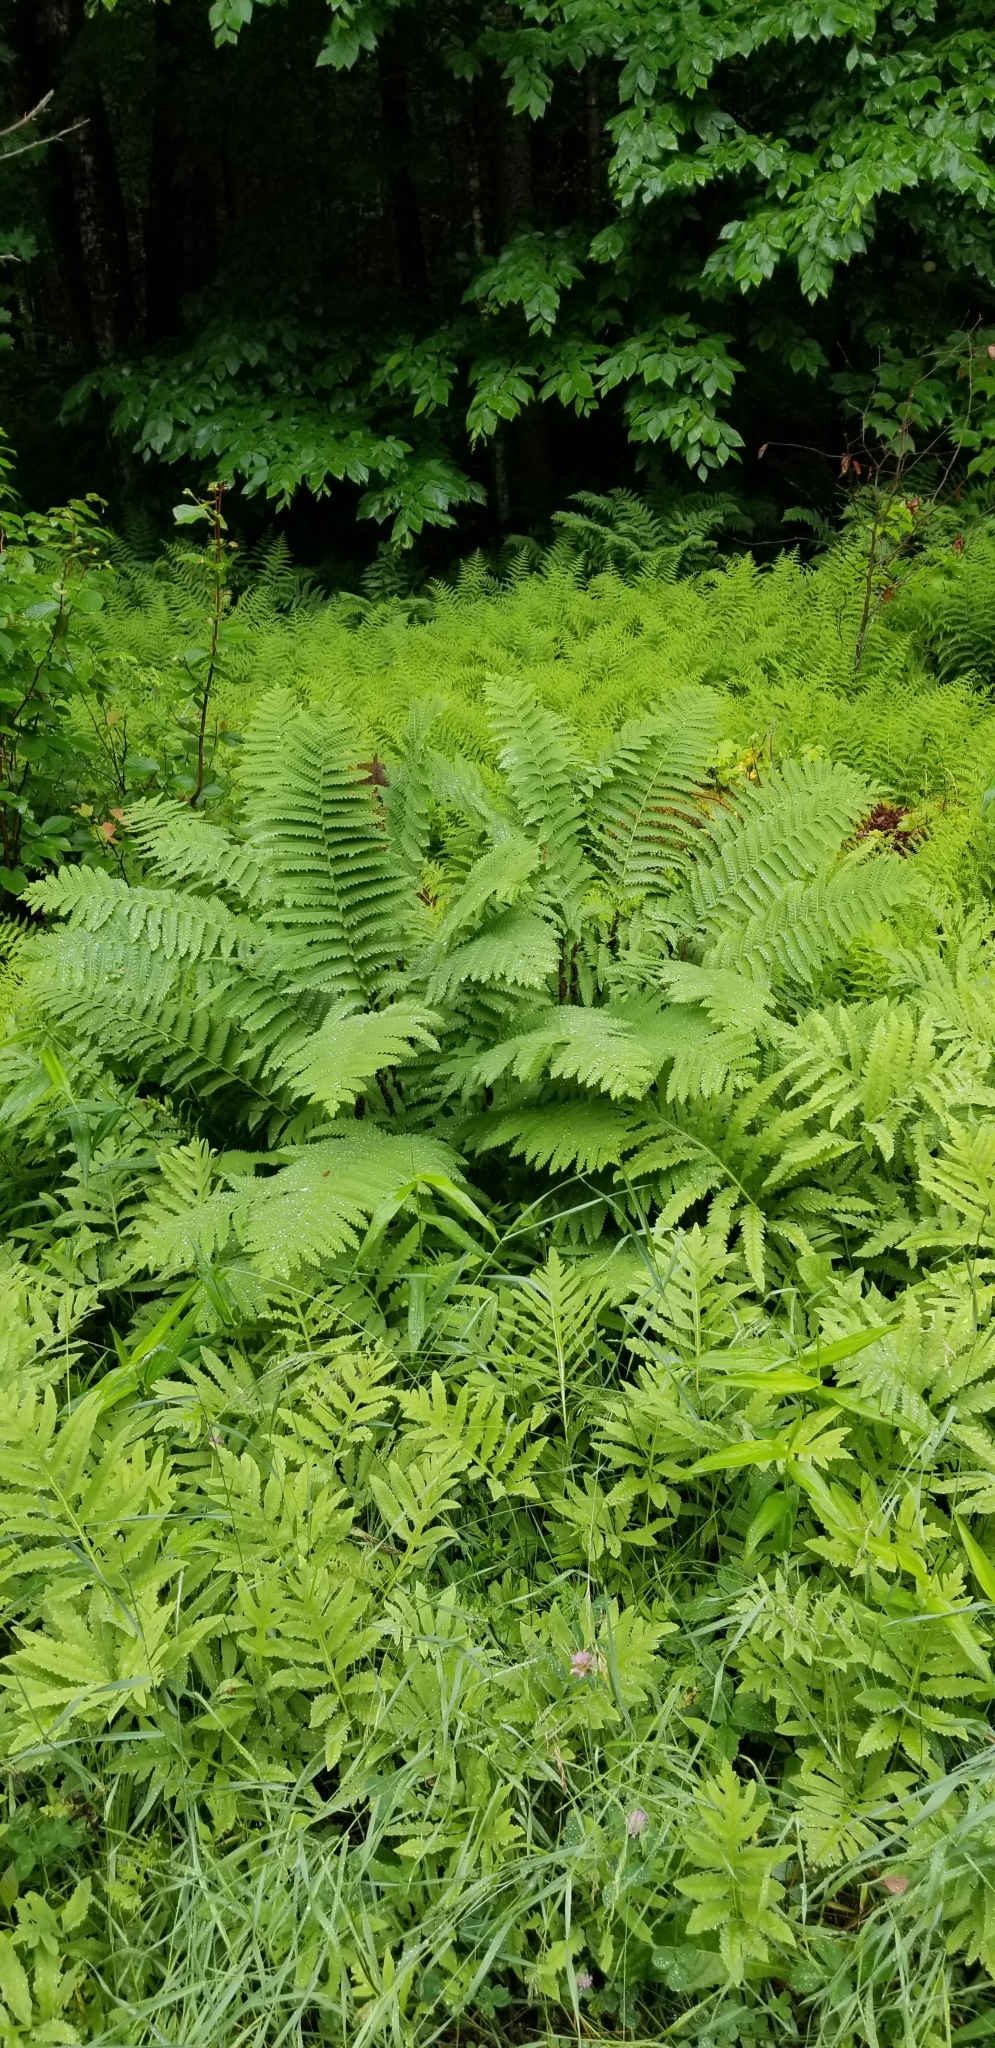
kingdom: Plantae
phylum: Tracheophyta
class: Polypodiopsida
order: Osmundales
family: Osmundaceae
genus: Claytosmunda
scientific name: Claytosmunda claytoniana
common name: Clayton's fern
